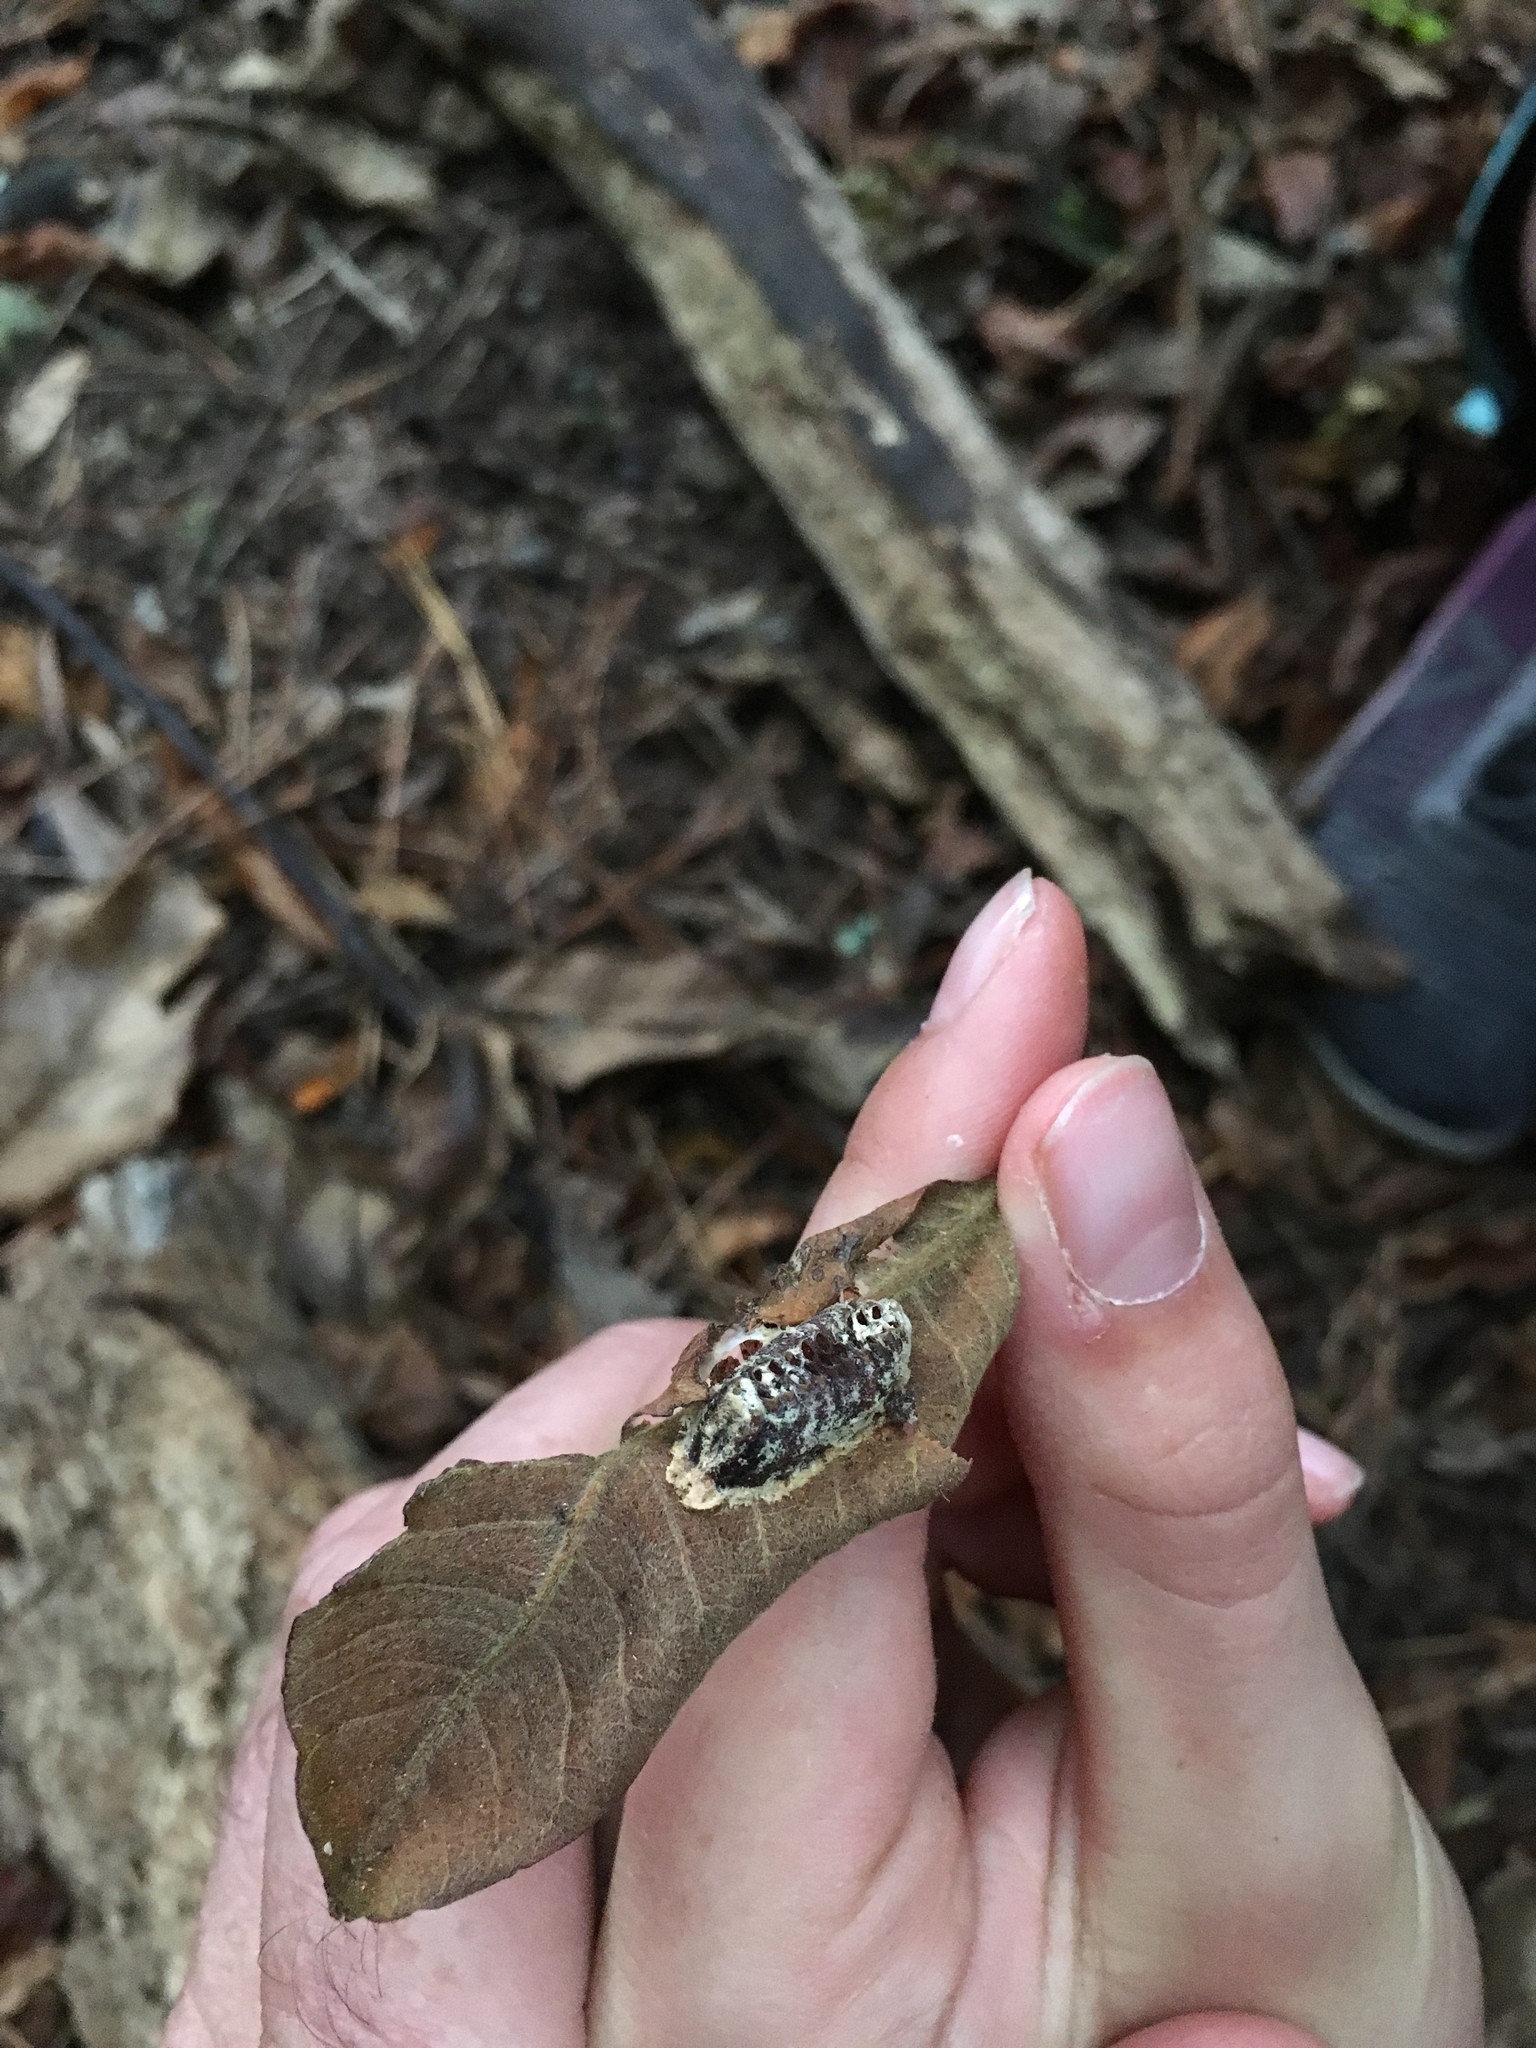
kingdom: Animalia
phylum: Arthropoda
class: Insecta
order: Mantodea
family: Mantidae
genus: Orthodera
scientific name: Orthodera novaezealandiae
